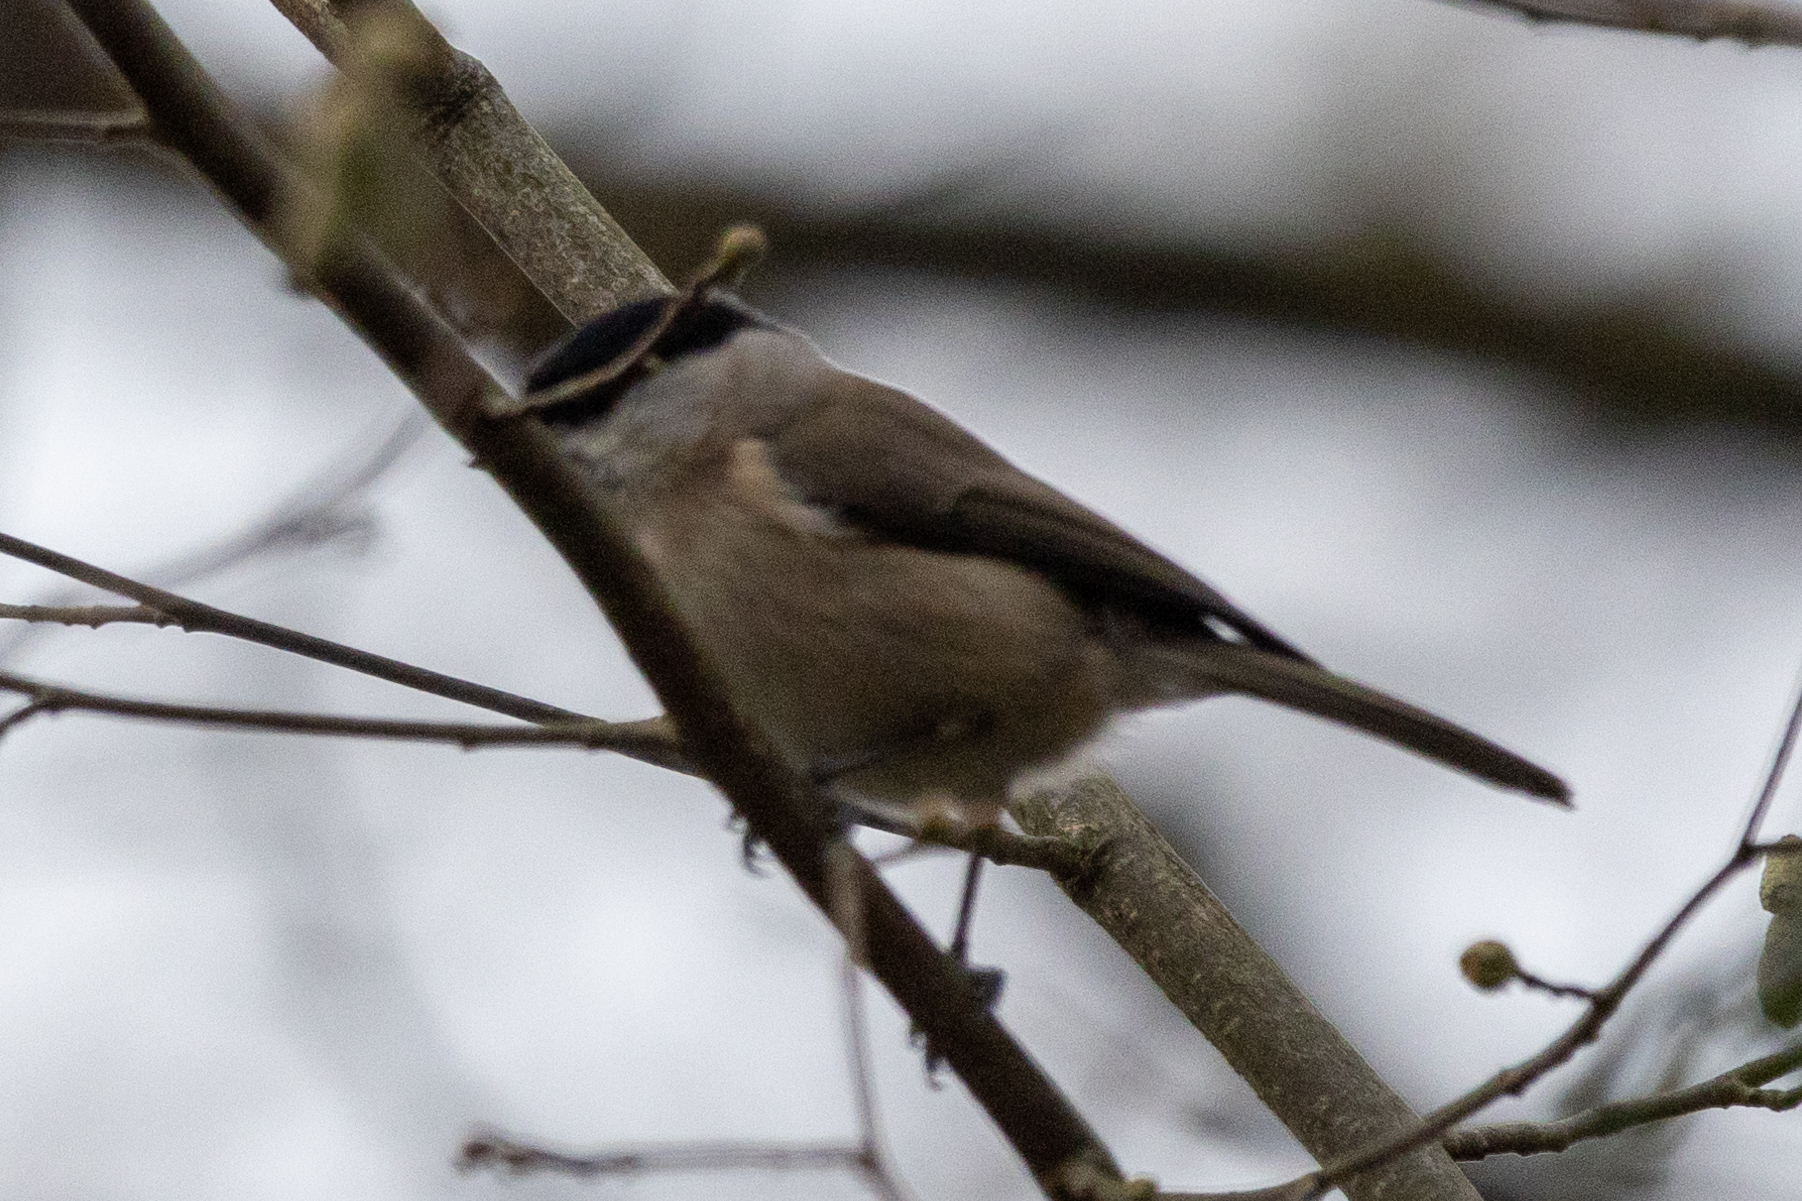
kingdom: Animalia
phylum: Chordata
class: Aves
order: Passeriformes
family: Paridae
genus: Poecile
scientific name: Poecile palustris
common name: Marsh tit
